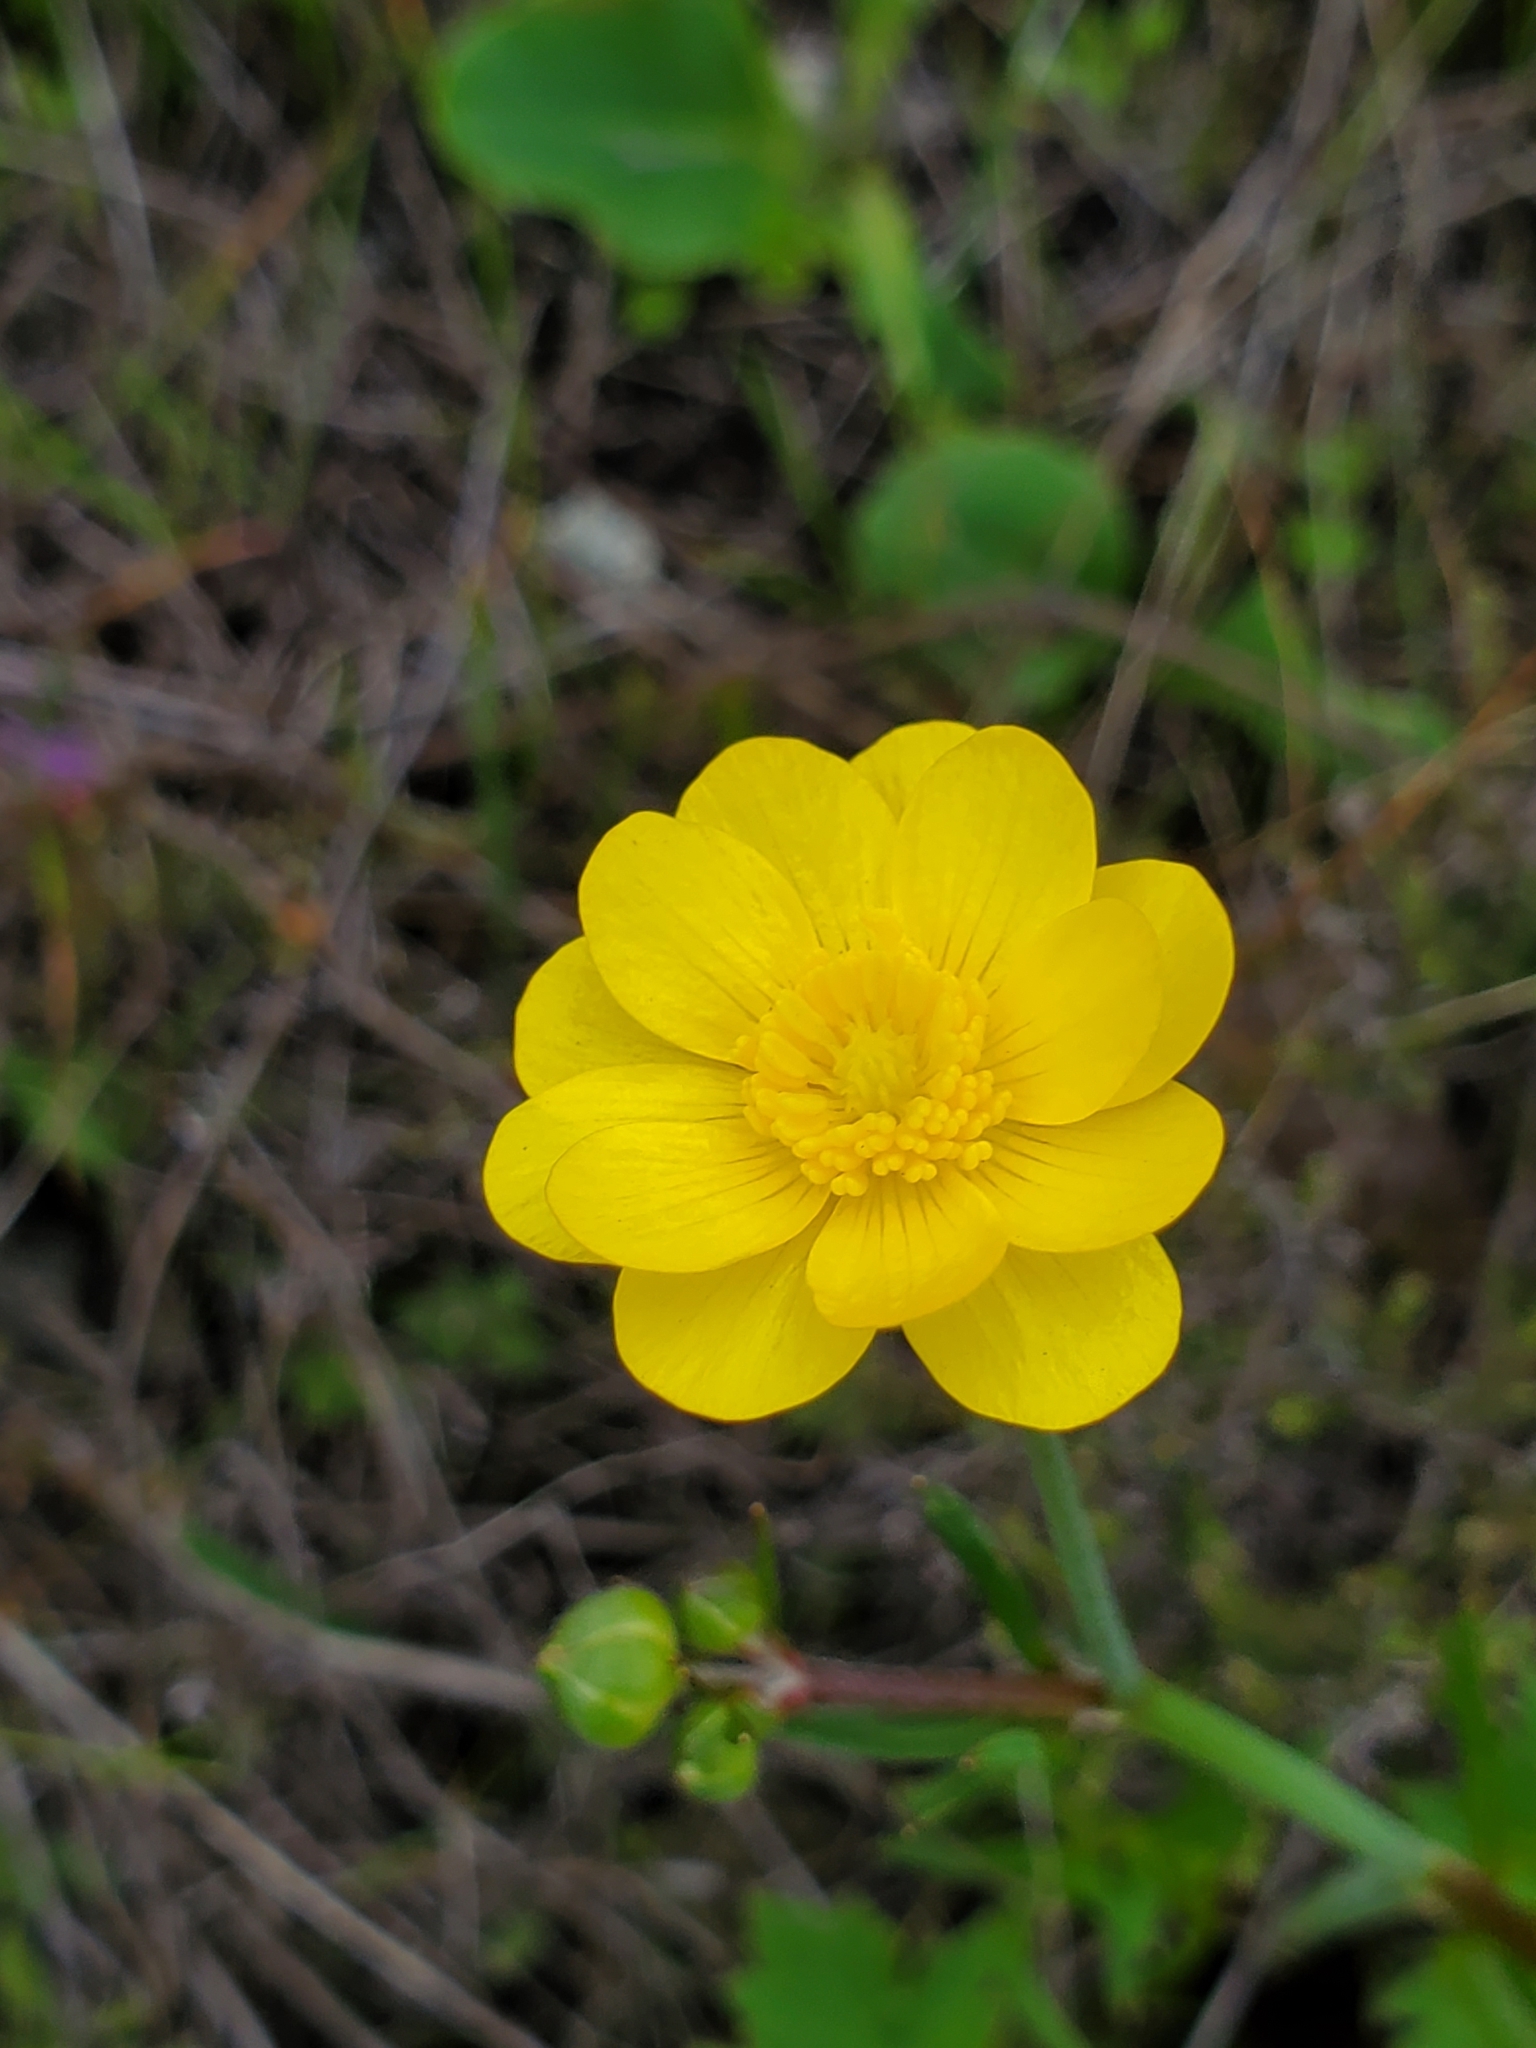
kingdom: Plantae
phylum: Tracheophyta
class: Magnoliopsida
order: Ranunculales
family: Ranunculaceae
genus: Ranunculus
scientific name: Ranunculus californicus
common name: California buttercup
